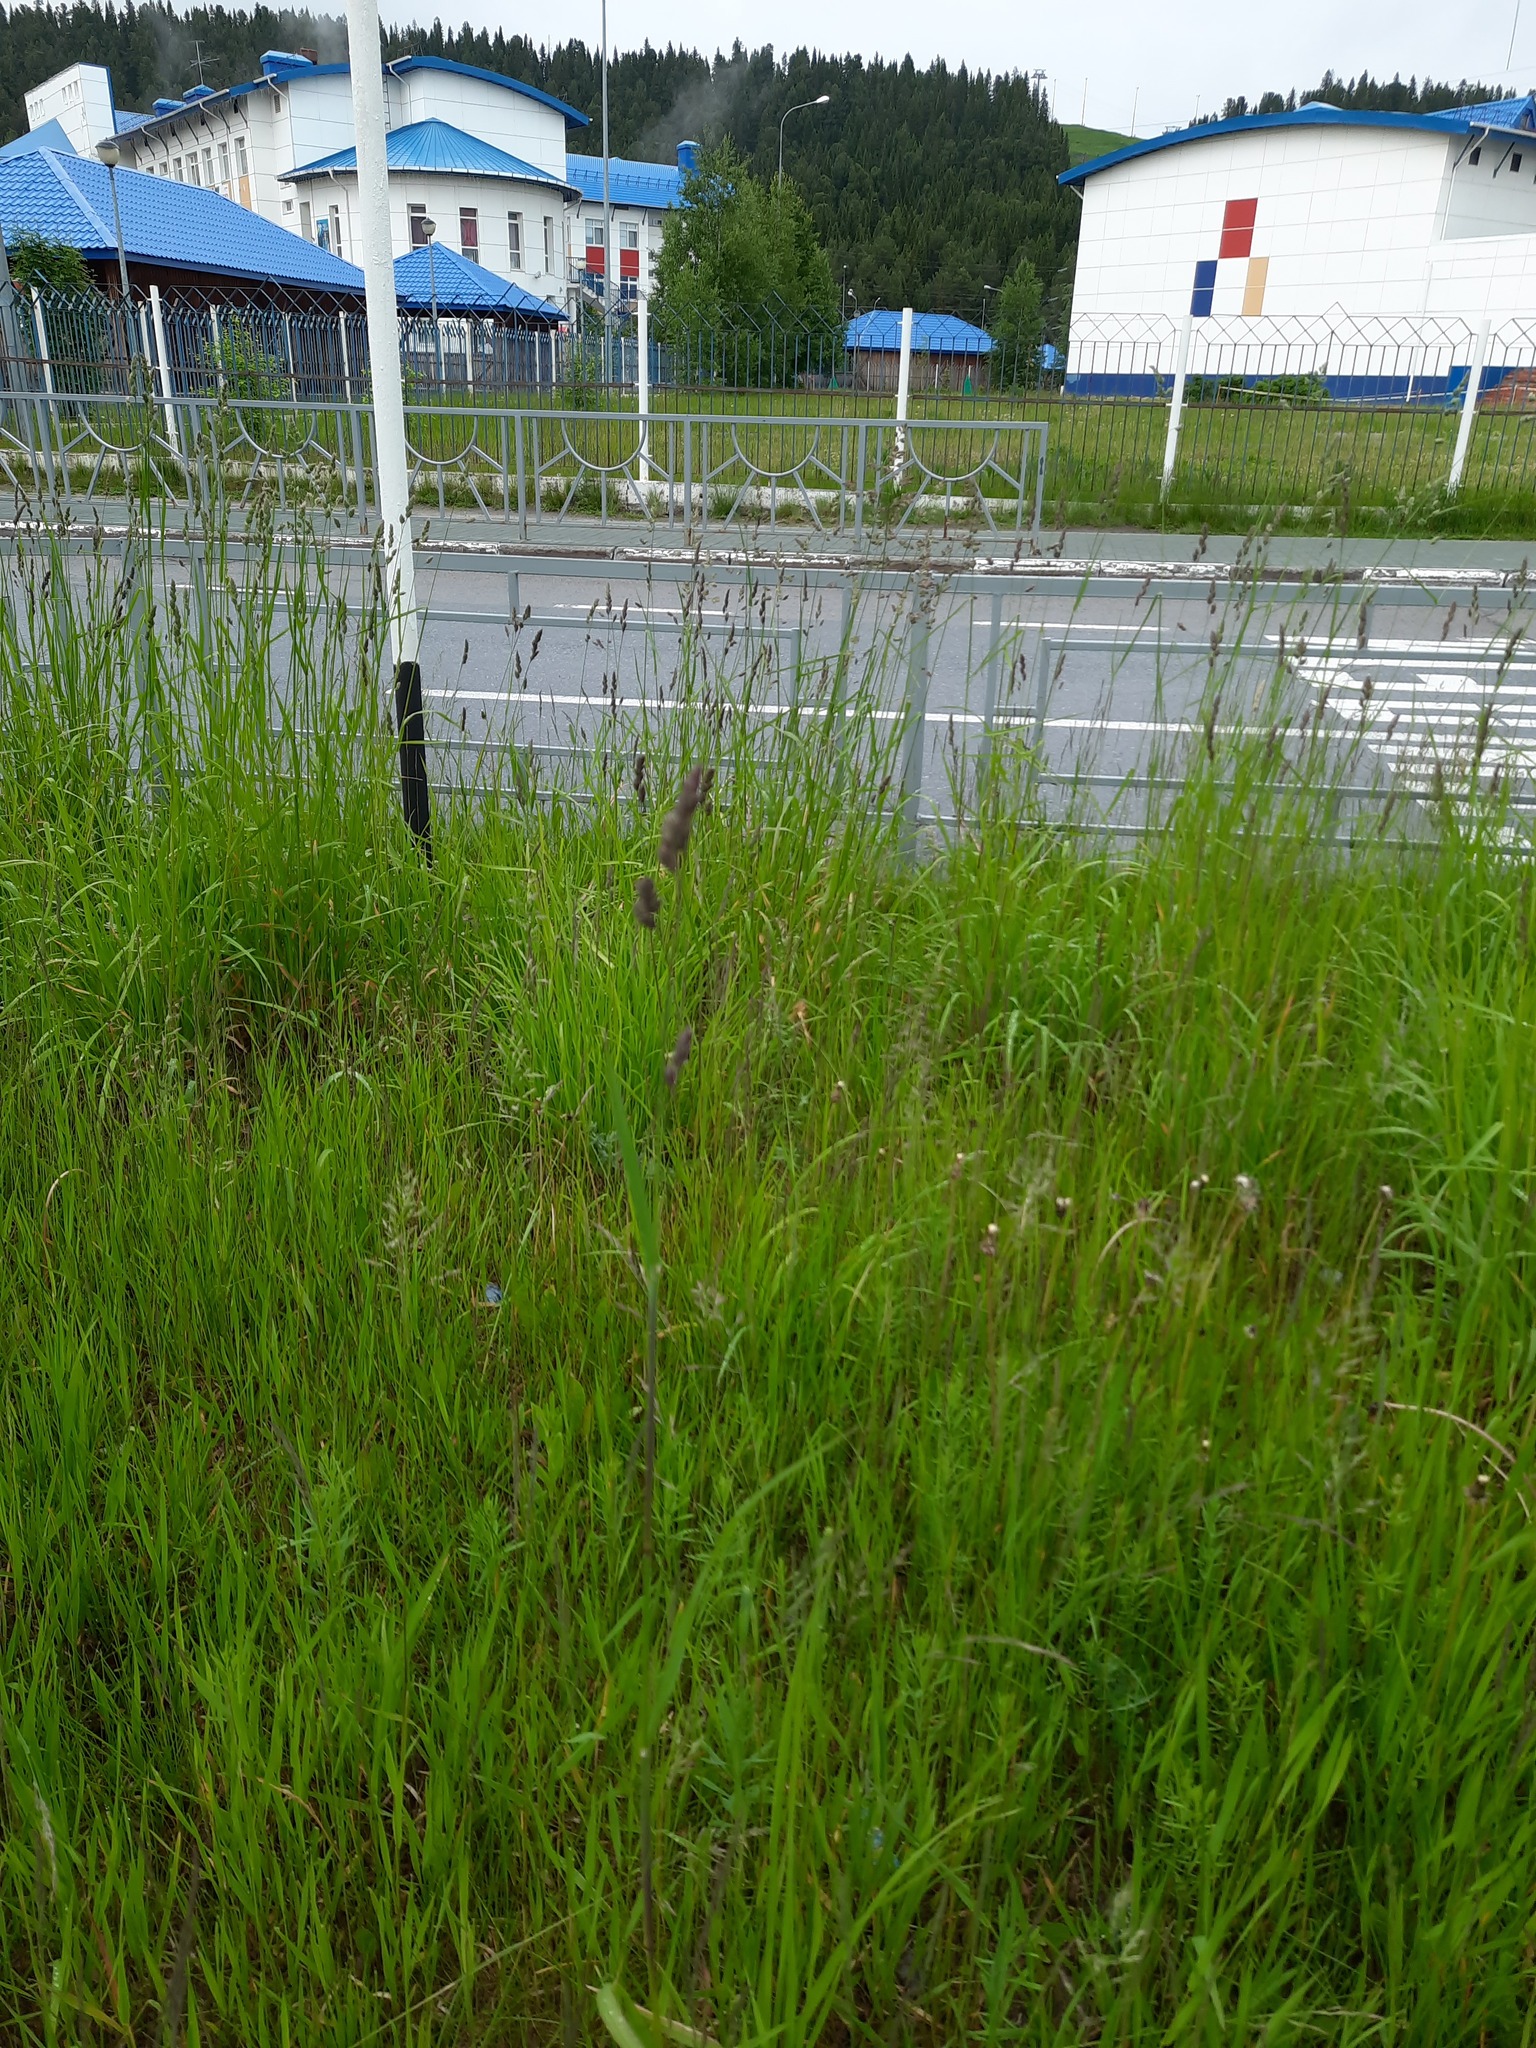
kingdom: Plantae
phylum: Tracheophyta
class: Liliopsida
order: Poales
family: Poaceae
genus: Dactylis
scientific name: Dactylis glomerata
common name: Orchardgrass
